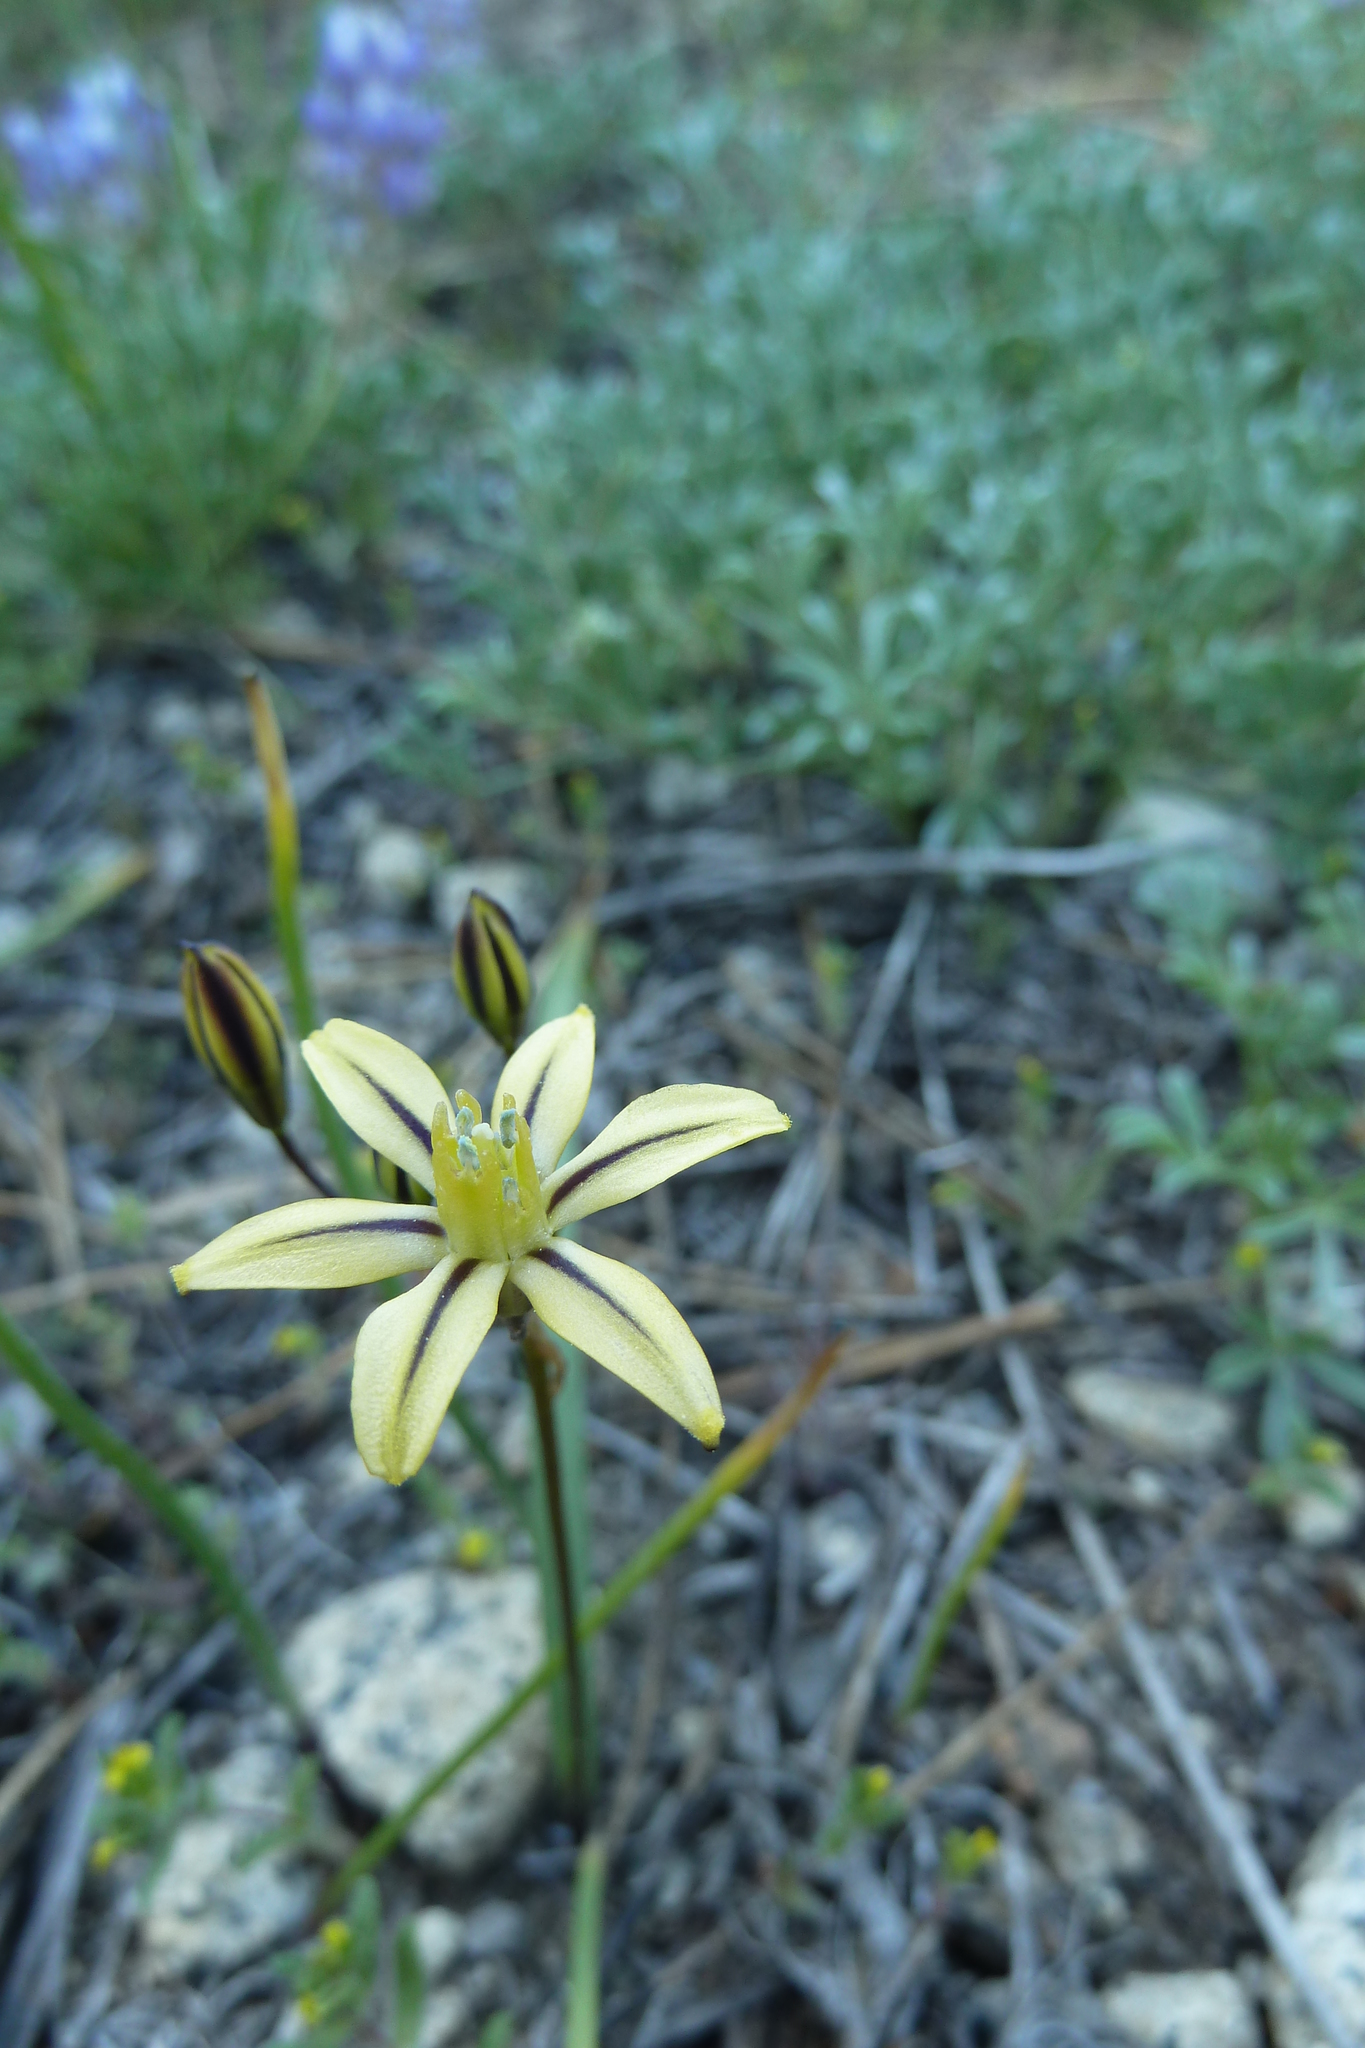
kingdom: Plantae
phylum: Tracheophyta
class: Liliopsida
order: Asparagales
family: Asparagaceae
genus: Triteleia
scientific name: Triteleia ixioides
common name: Yellow-brodiaea
